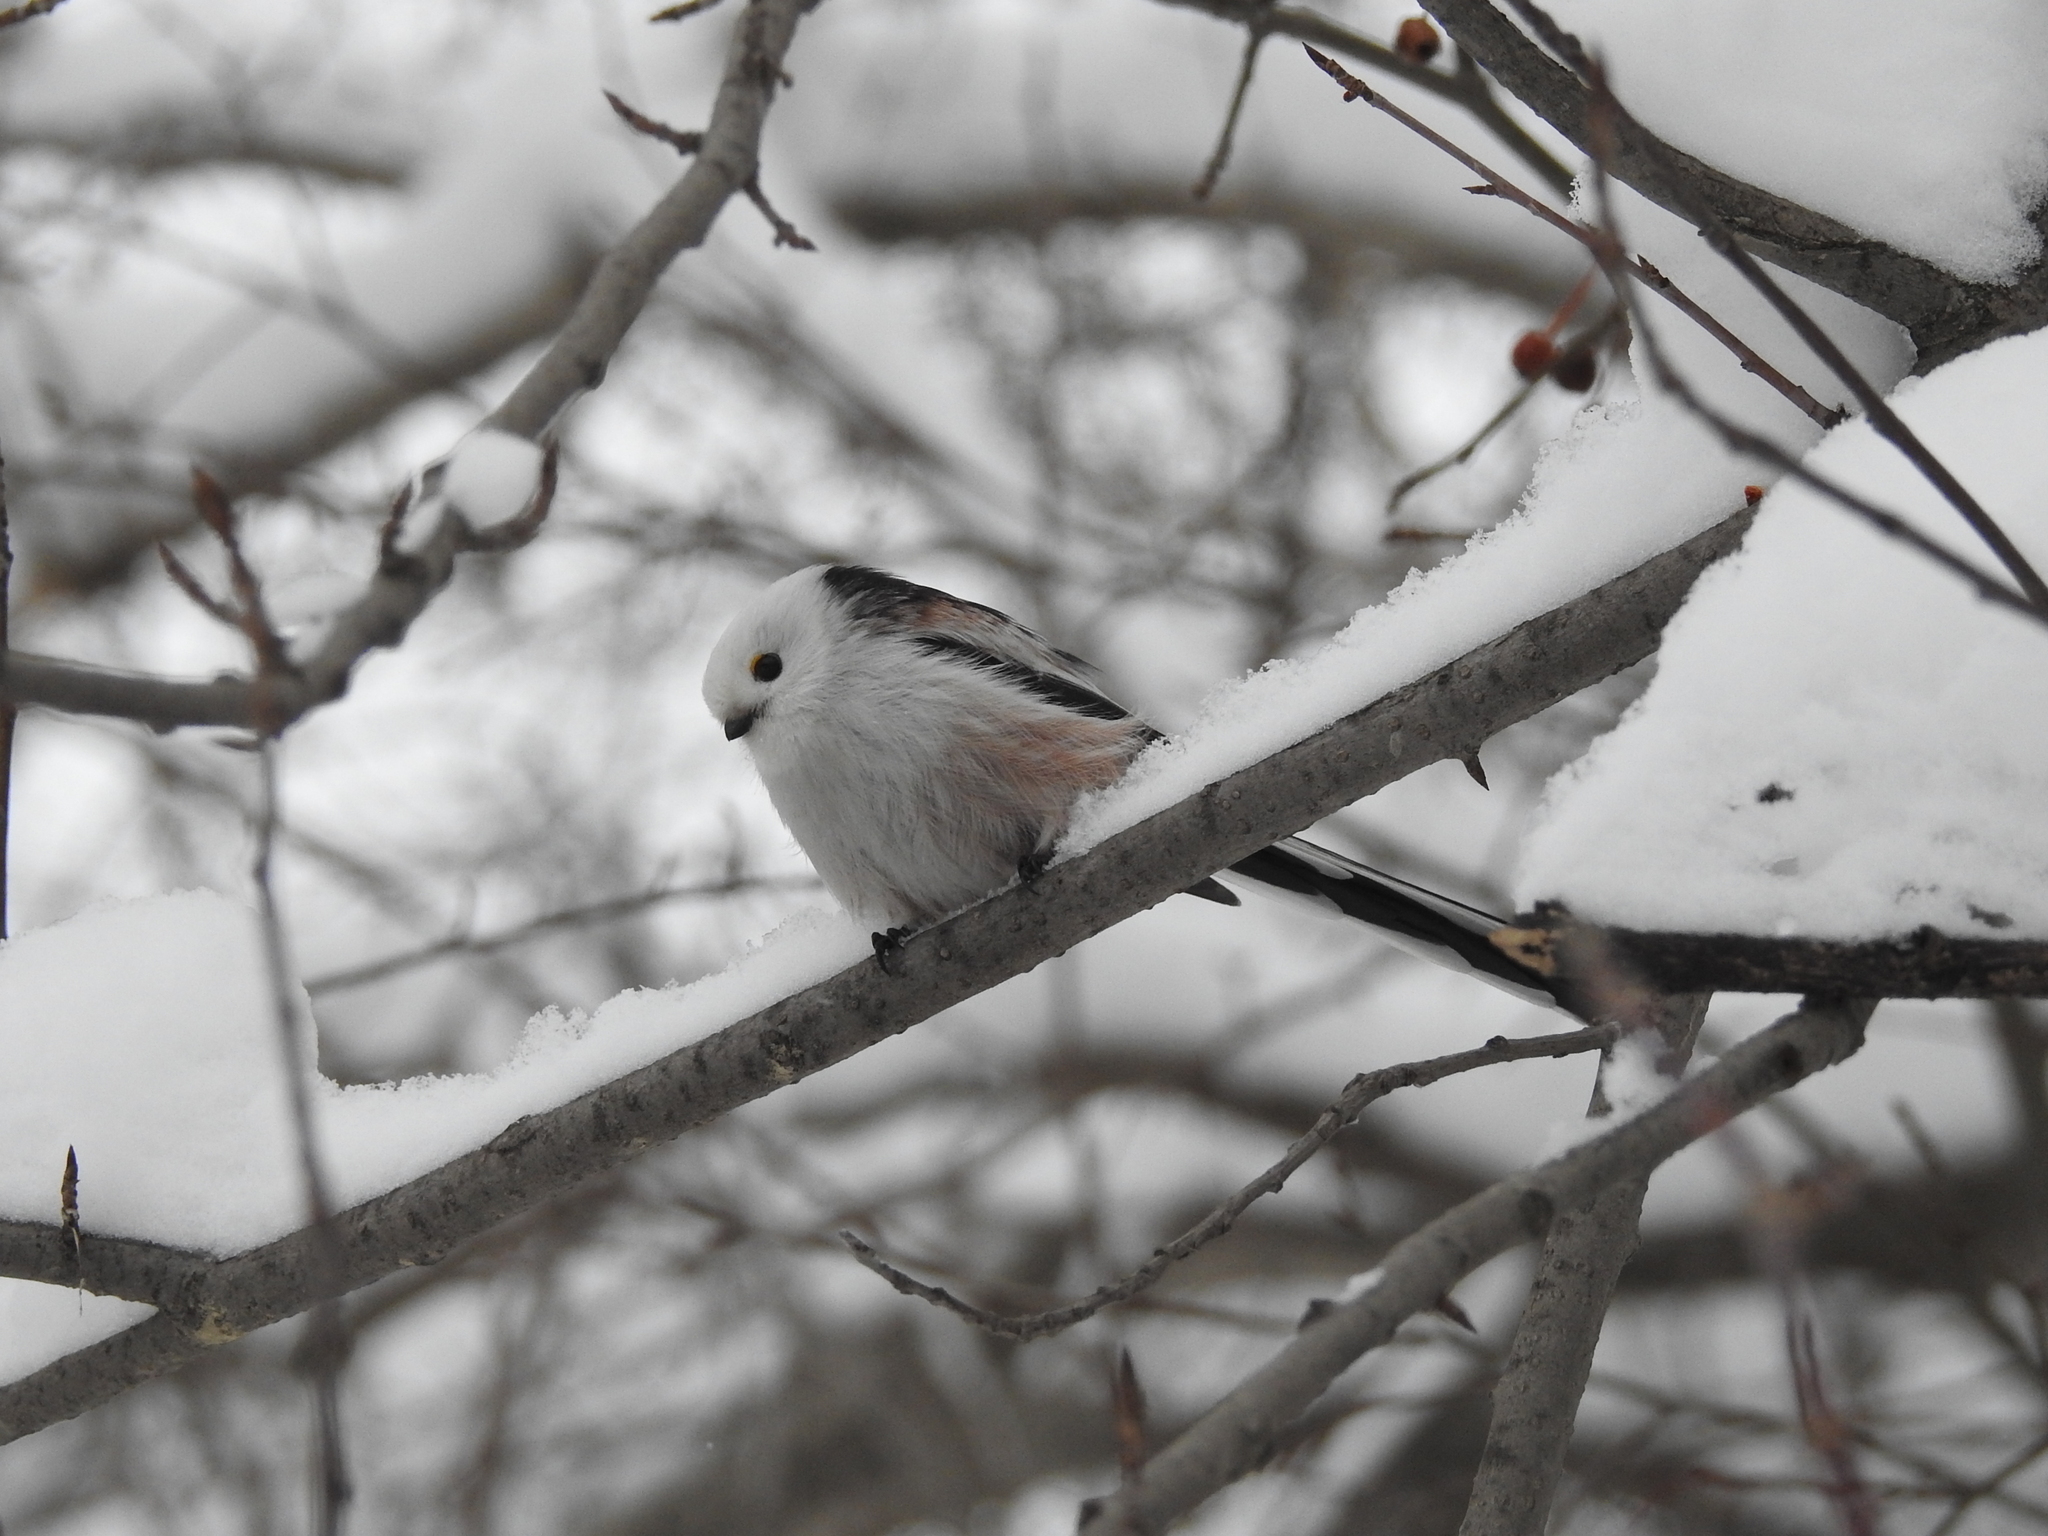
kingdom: Animalia
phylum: Chordata
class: Aves
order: Passeriformes
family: Aegithalidae
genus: Aegithalos
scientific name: Aegithalos caudatus
